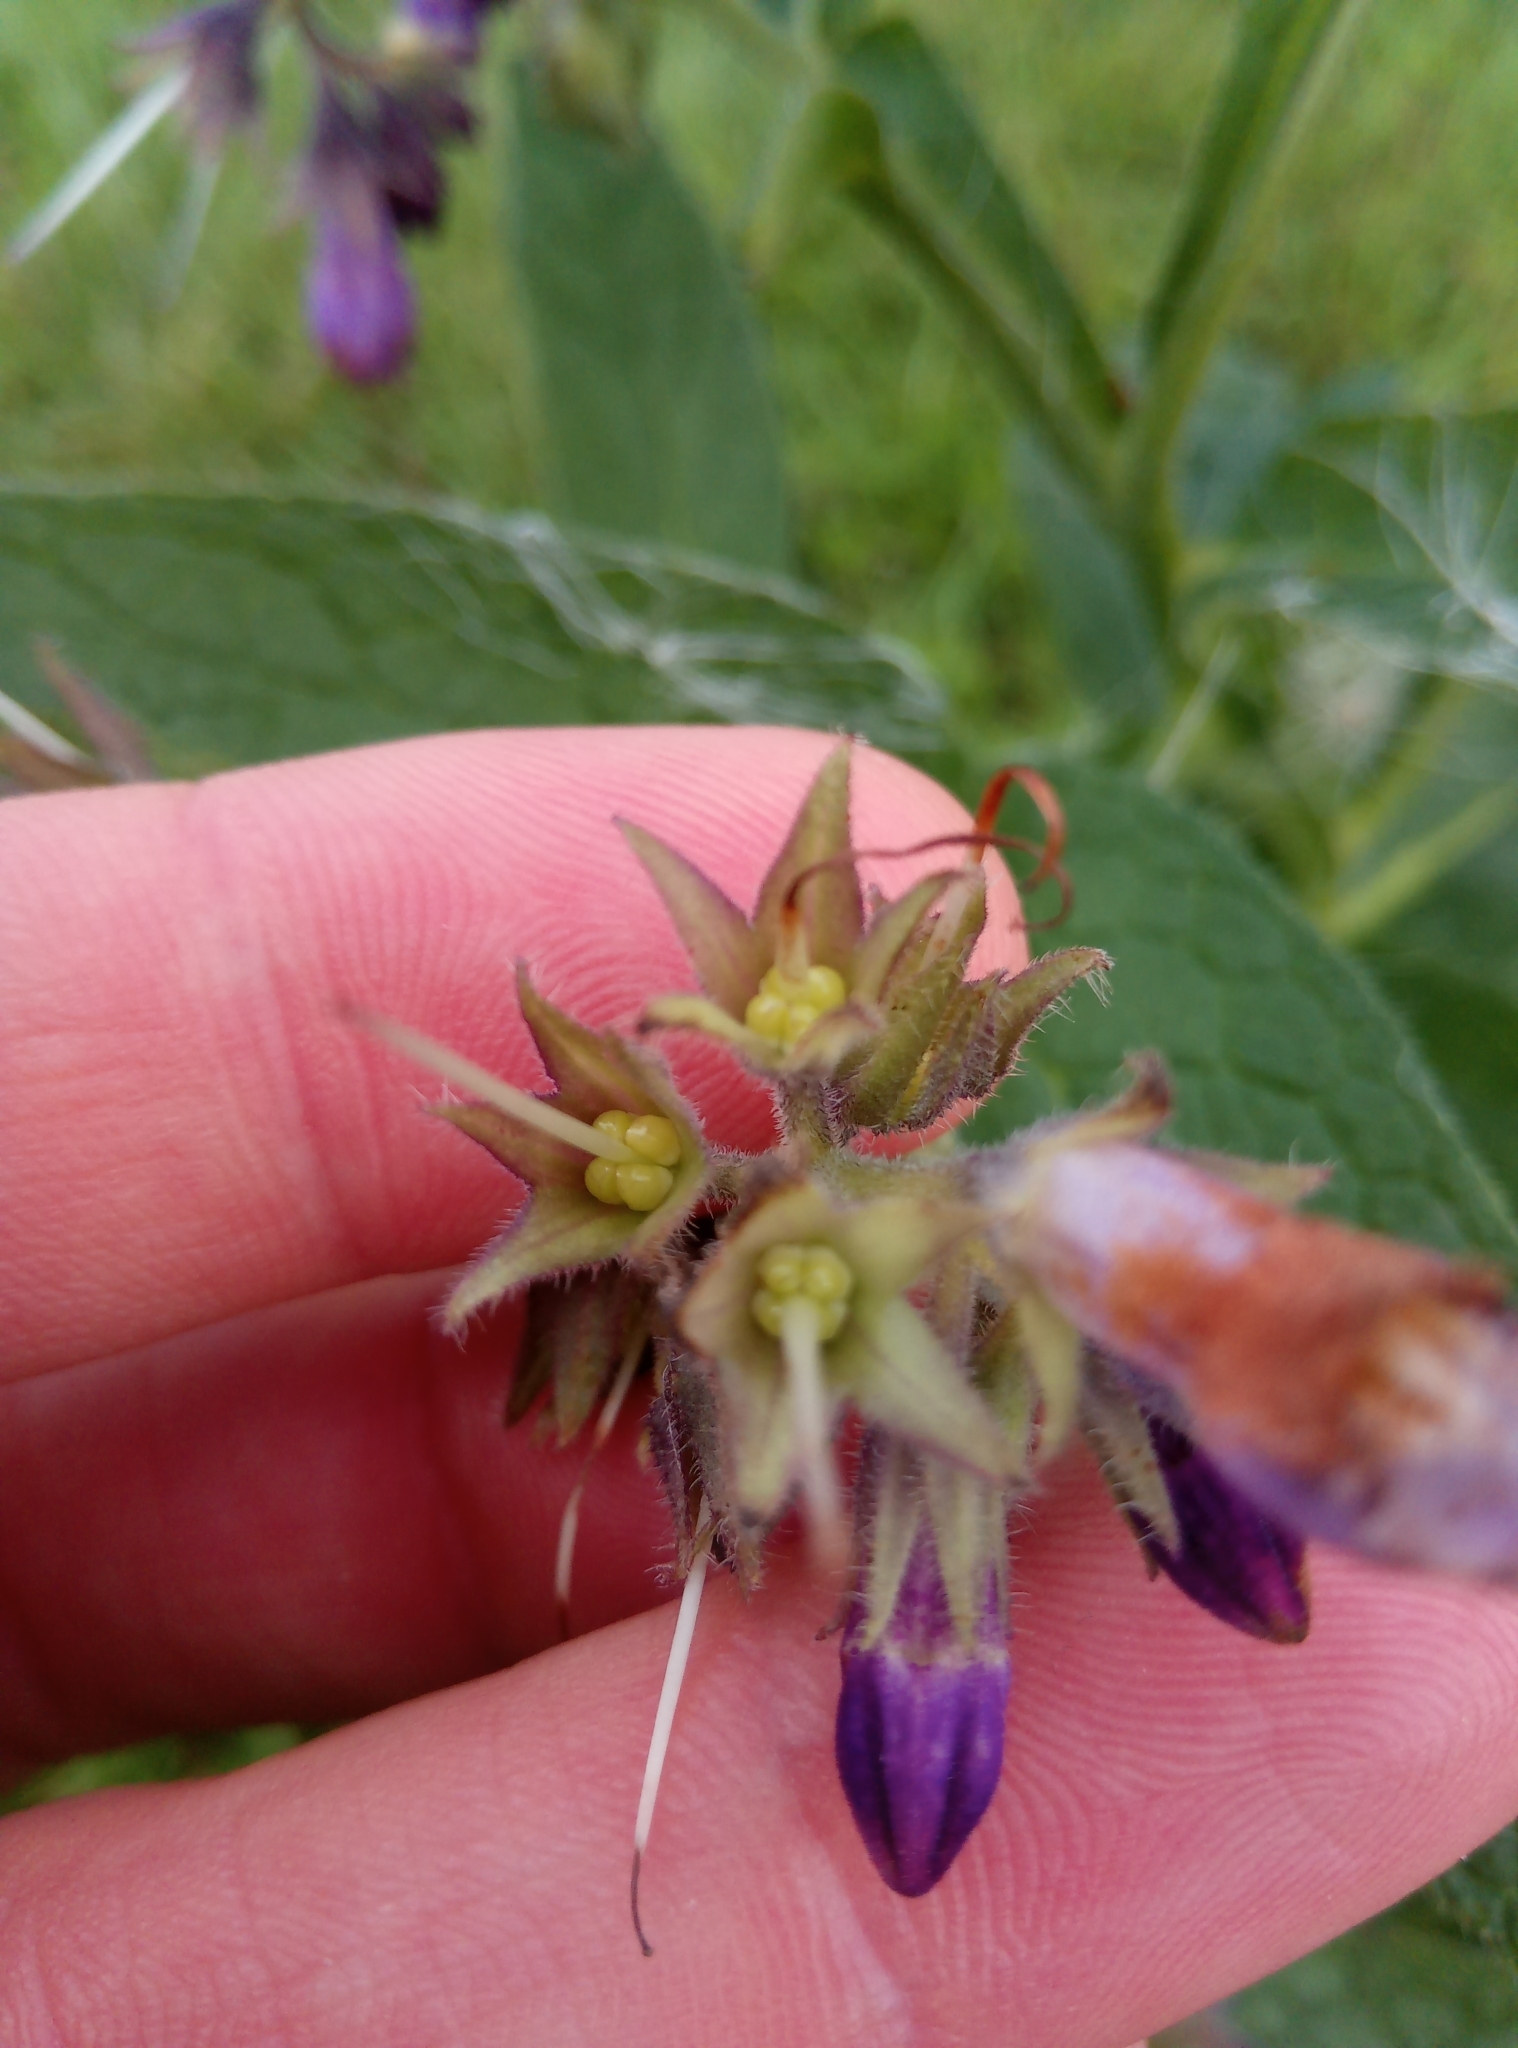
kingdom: Plantae
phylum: Tracheophyta
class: Magnoliopsida
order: Boraginales
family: Boraginaceae
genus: Symphytum
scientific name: Symphytum officinale
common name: Common comfrey
